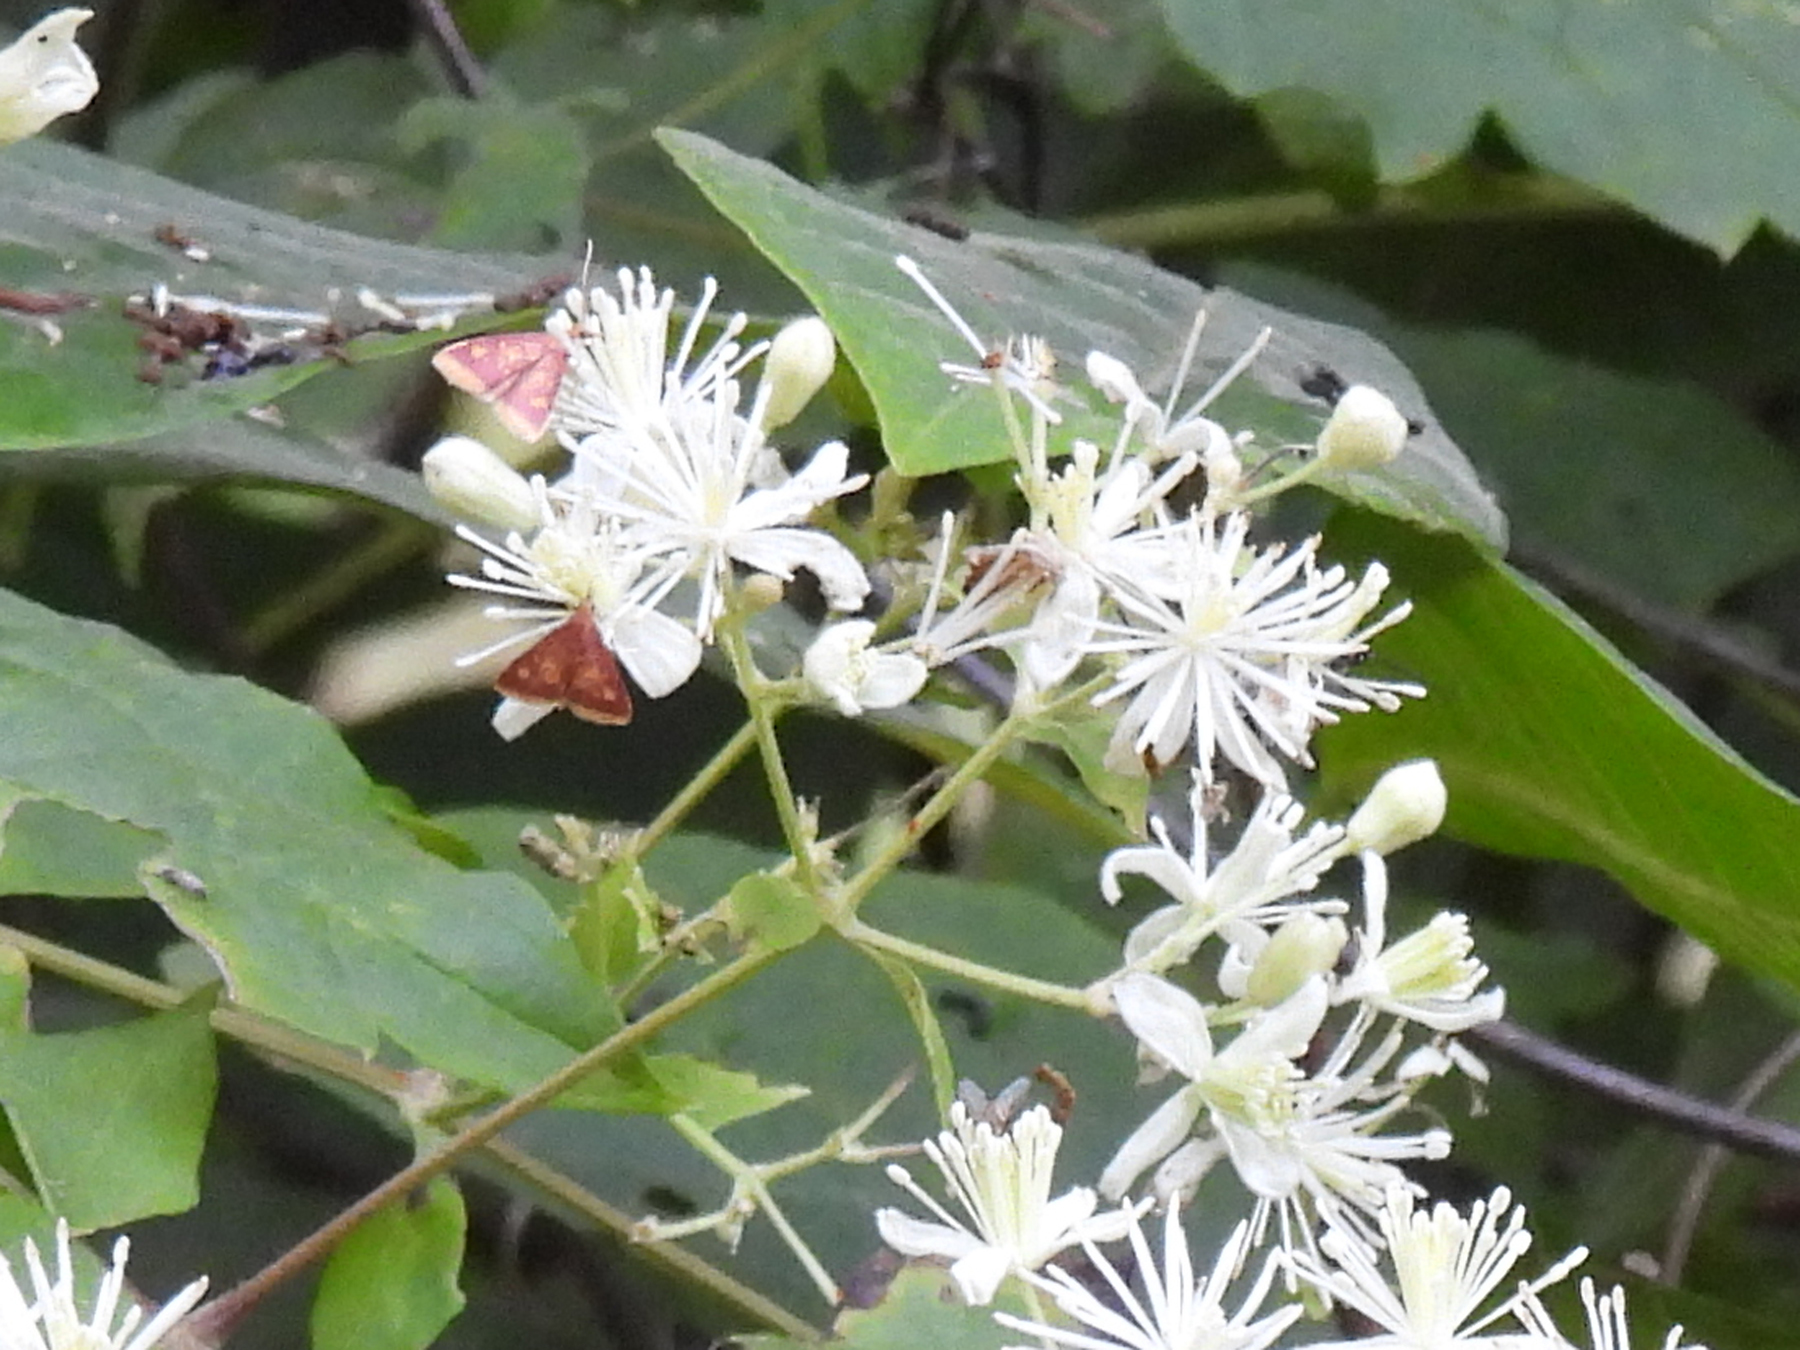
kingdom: Animalia
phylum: Arthropoda
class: Insecta
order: Lepidoptera
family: Crambidae
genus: Pyrausta
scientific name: Pyrausta acrionalis
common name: Mint-loving pyrausta moth
